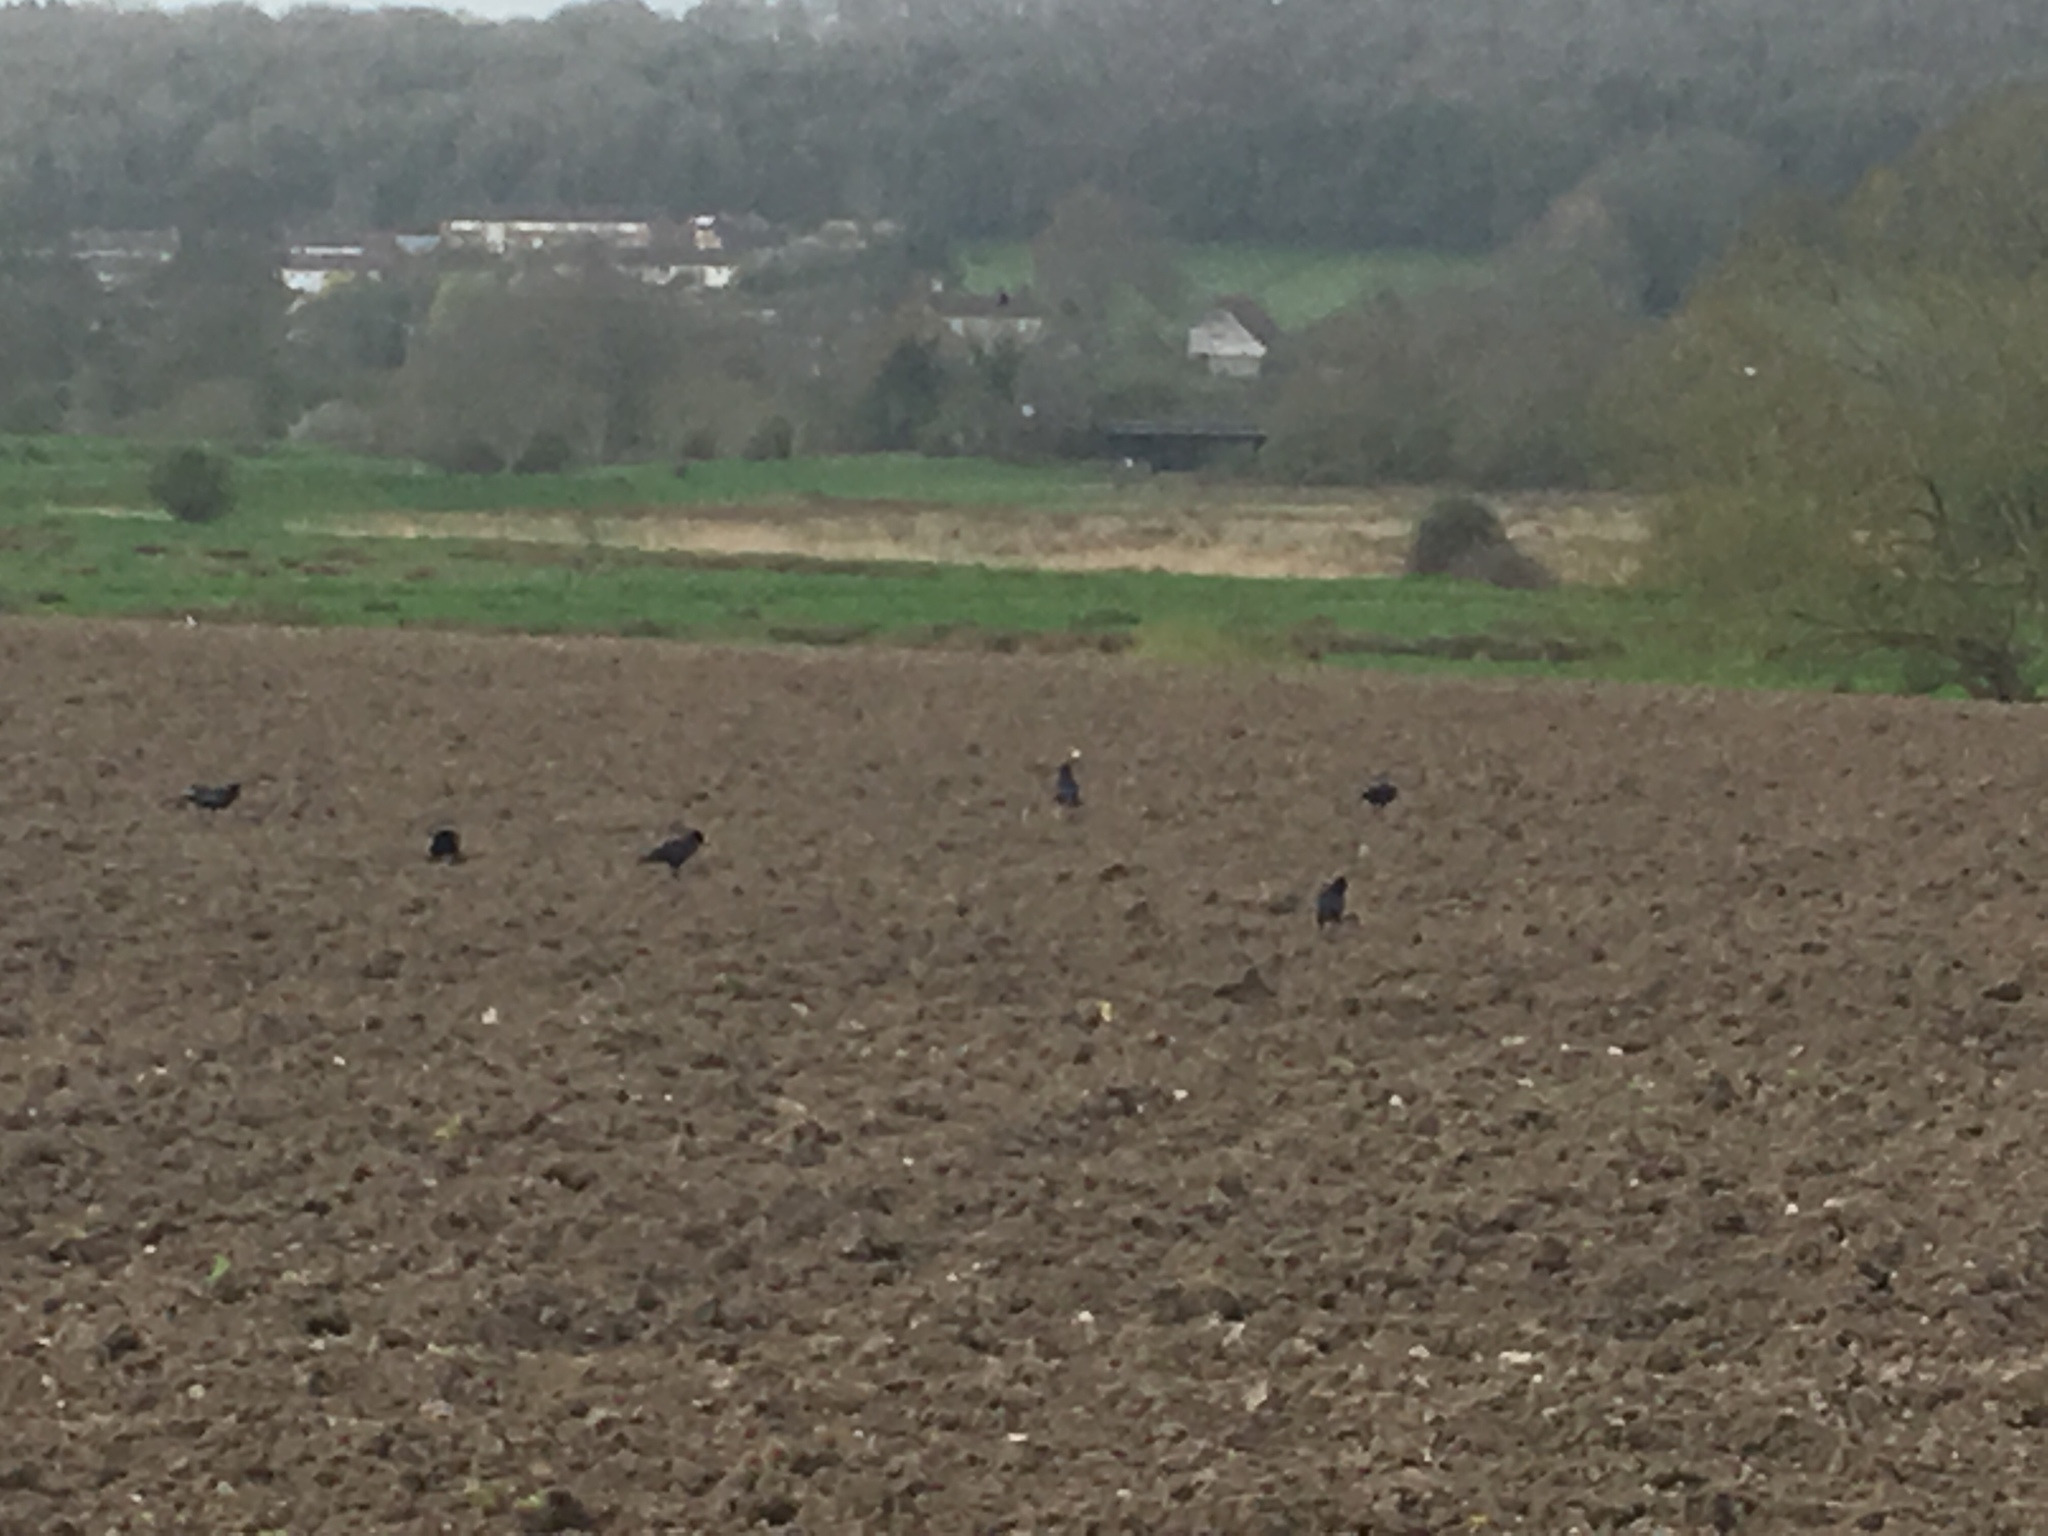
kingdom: Animalia
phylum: Chordata
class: Aves
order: Passeriformes
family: Corvidae
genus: Corvus
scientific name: Corvus frugilegus
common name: Rook
